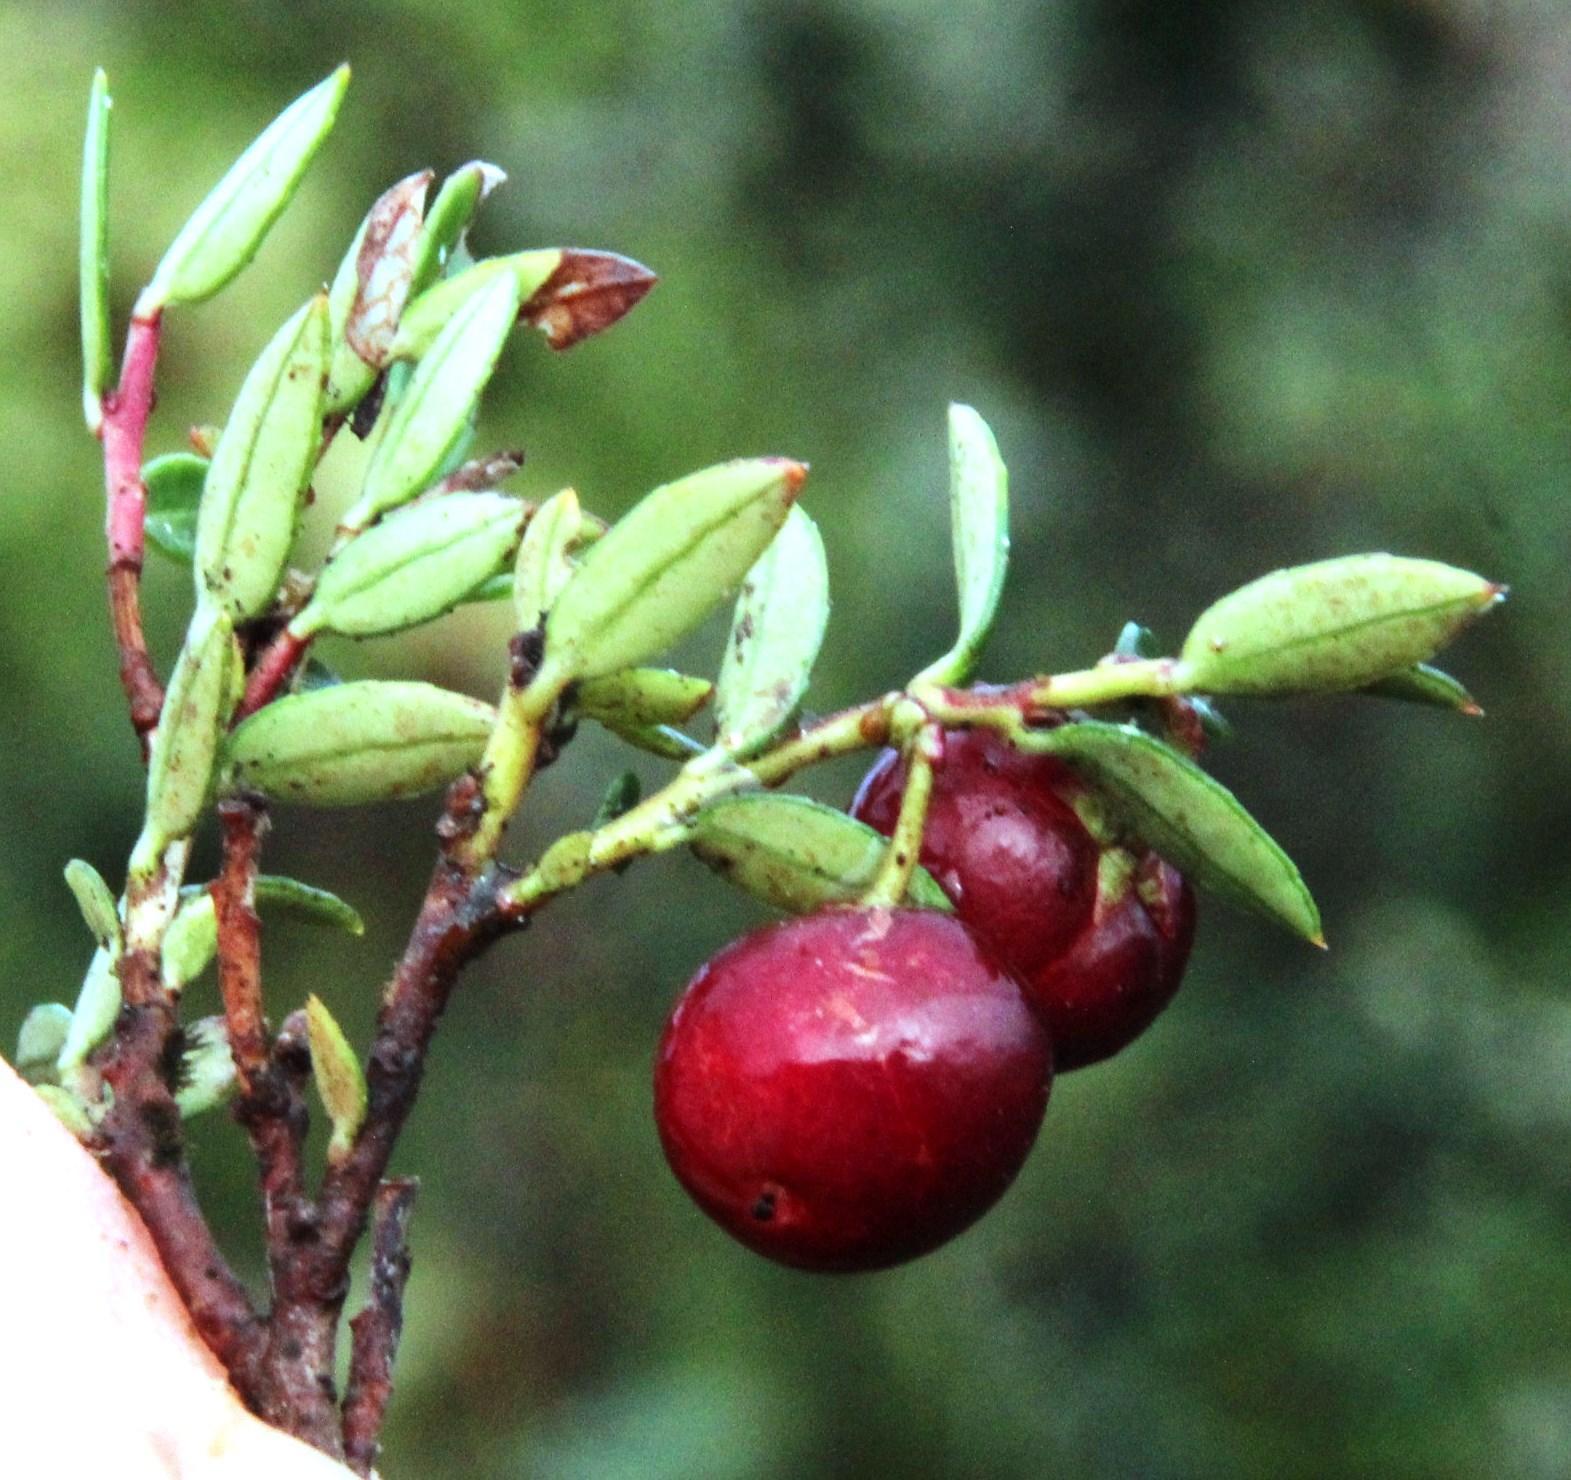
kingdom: Plantae
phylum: Tracheophyta
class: Magnoliopsida
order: Ericales
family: Ericaceae
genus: Gaultheria
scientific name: Gaultheria mucronata
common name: Prickly heath
